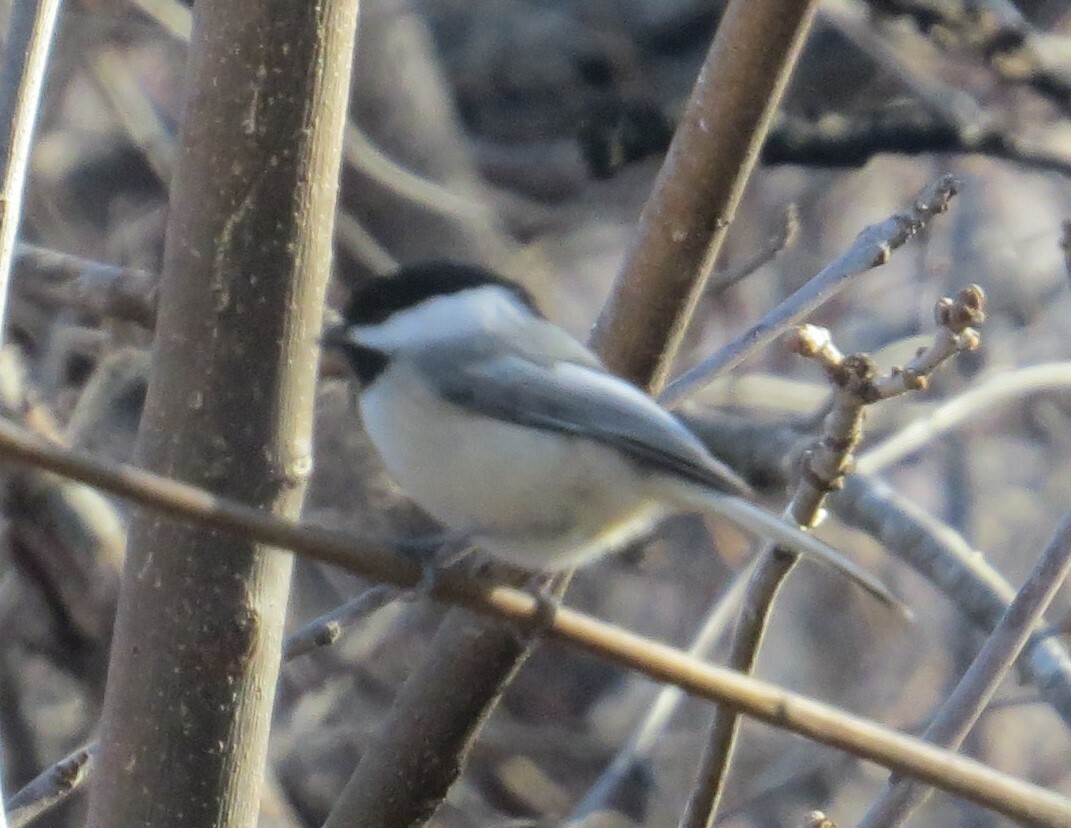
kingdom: Animalia
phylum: Chordata
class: Aves
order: Passeriformes
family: Paridae
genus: Poecile
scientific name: Poecile atricapillus
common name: Black-capped chickadee
